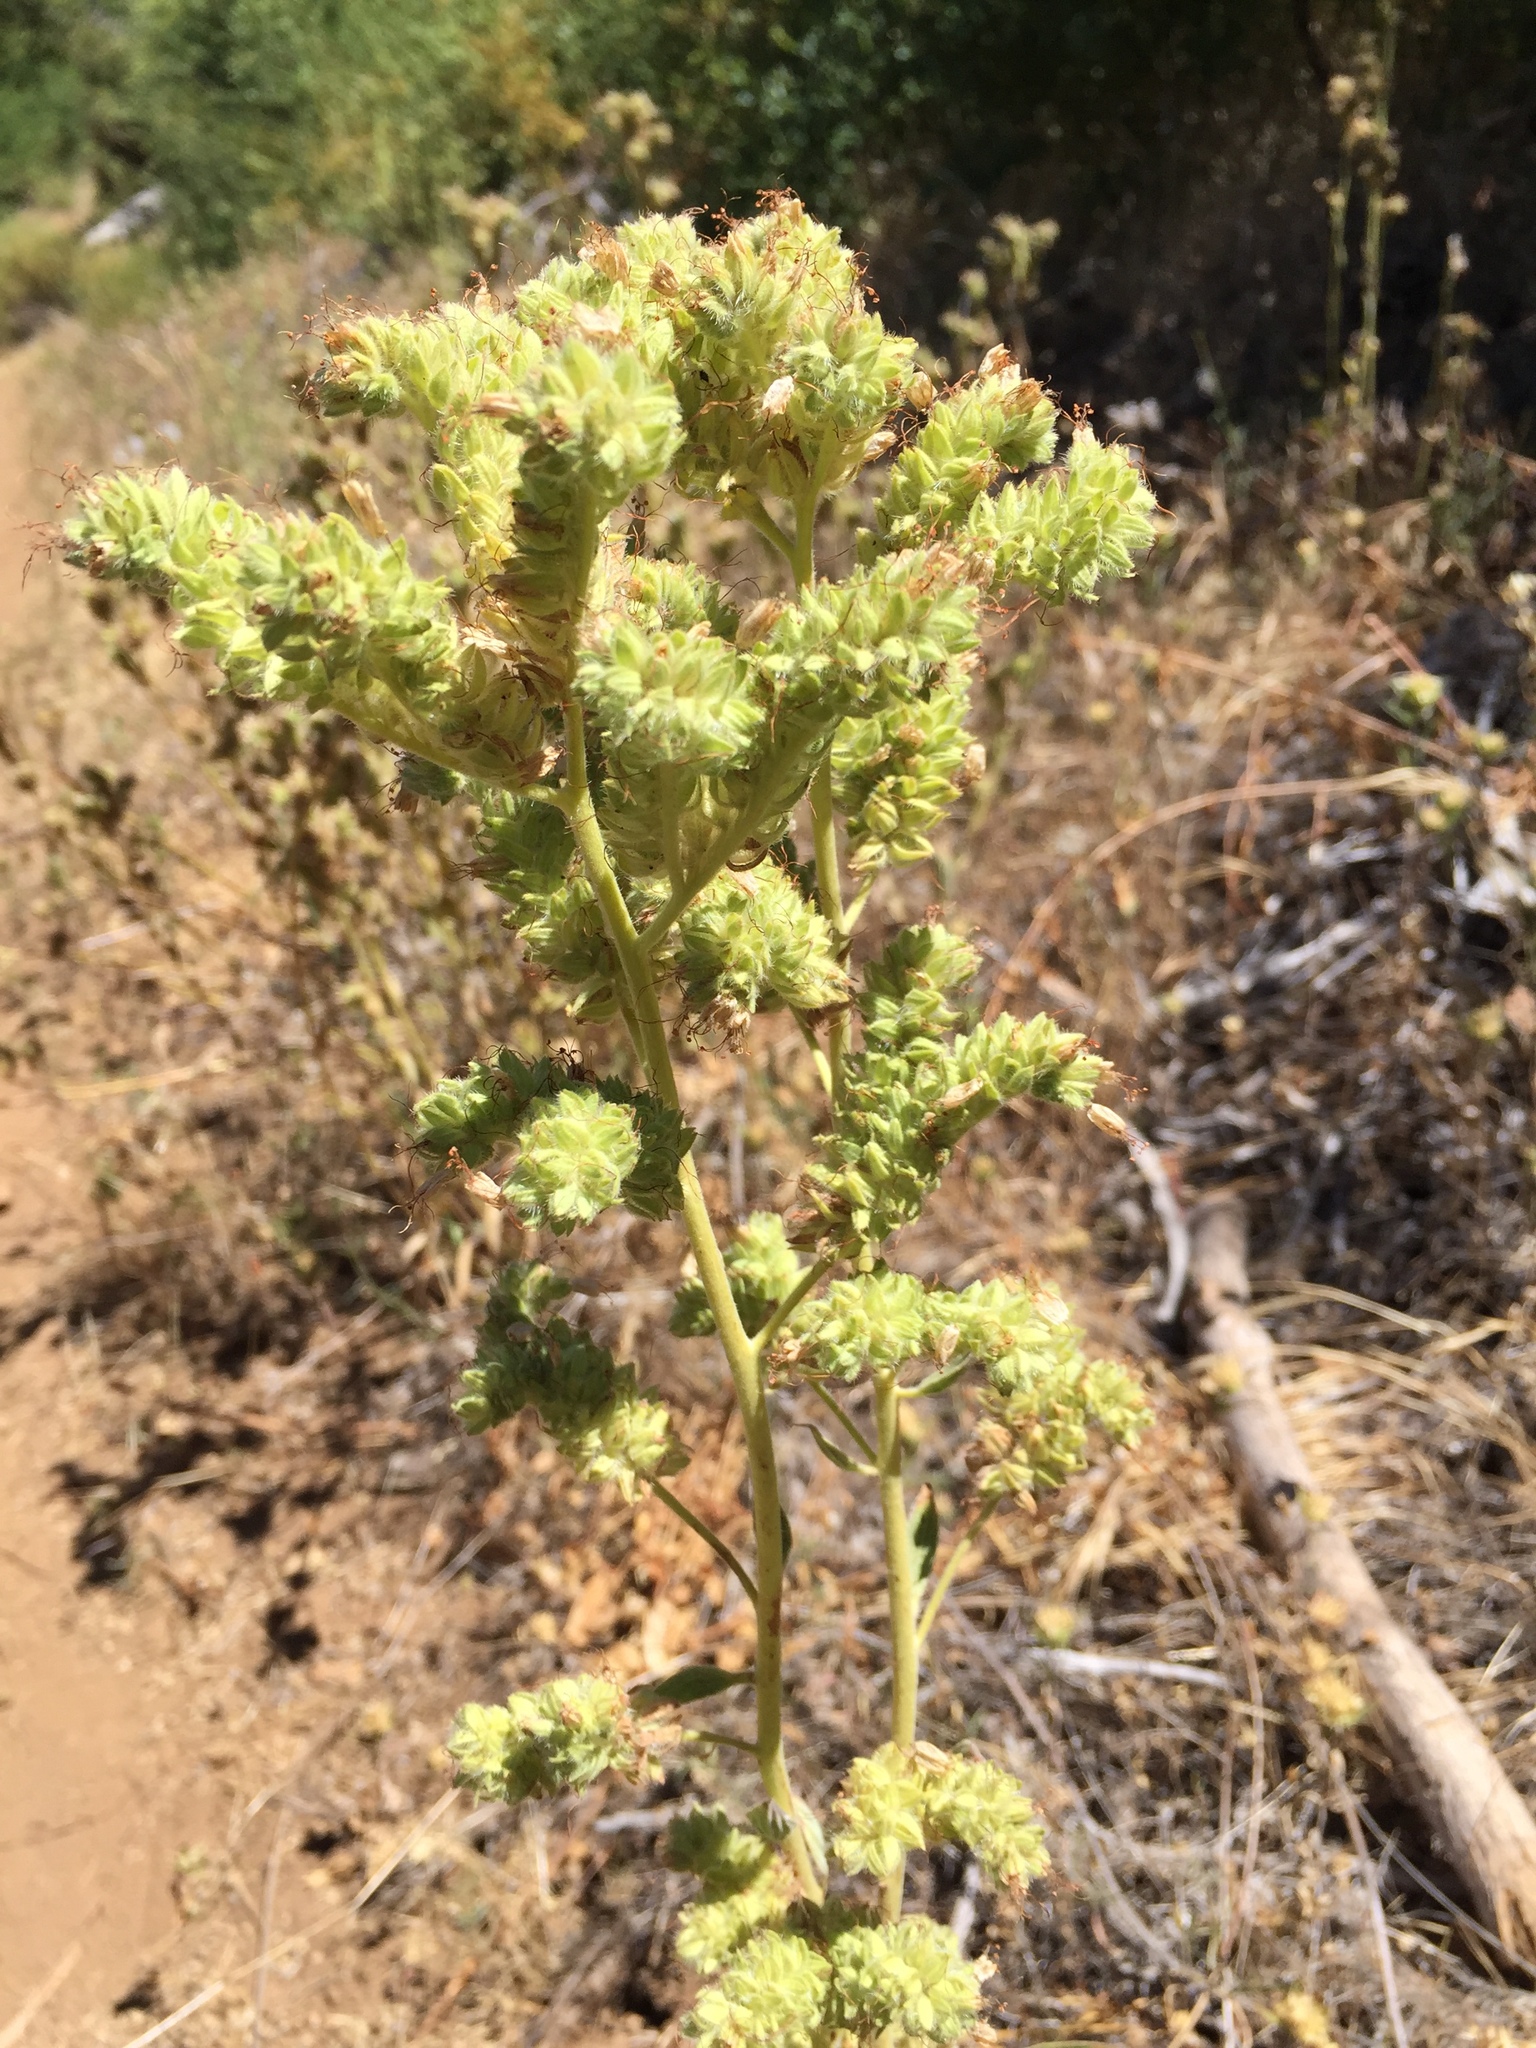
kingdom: Plantae
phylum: Tracheophyta
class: Magnoliopsida
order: Boraginales
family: Hydrophyllaceae
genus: Phacelia
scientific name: Phacelia ramosissima
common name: Branching phacelia
